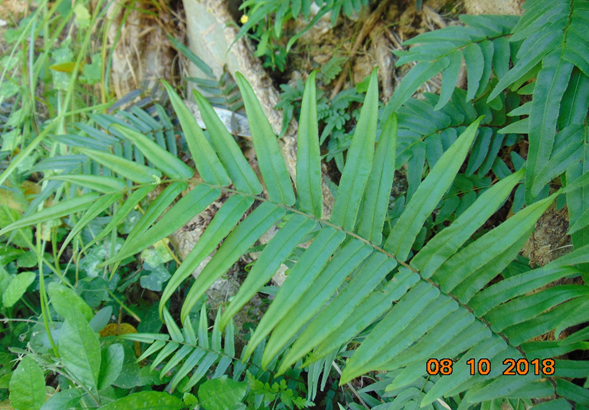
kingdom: Plantae
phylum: Tracheophyta
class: Polypodiopsida
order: Polypodiales
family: Pteridaceae
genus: Pteris
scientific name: Pteris vittata
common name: Ladder brake
